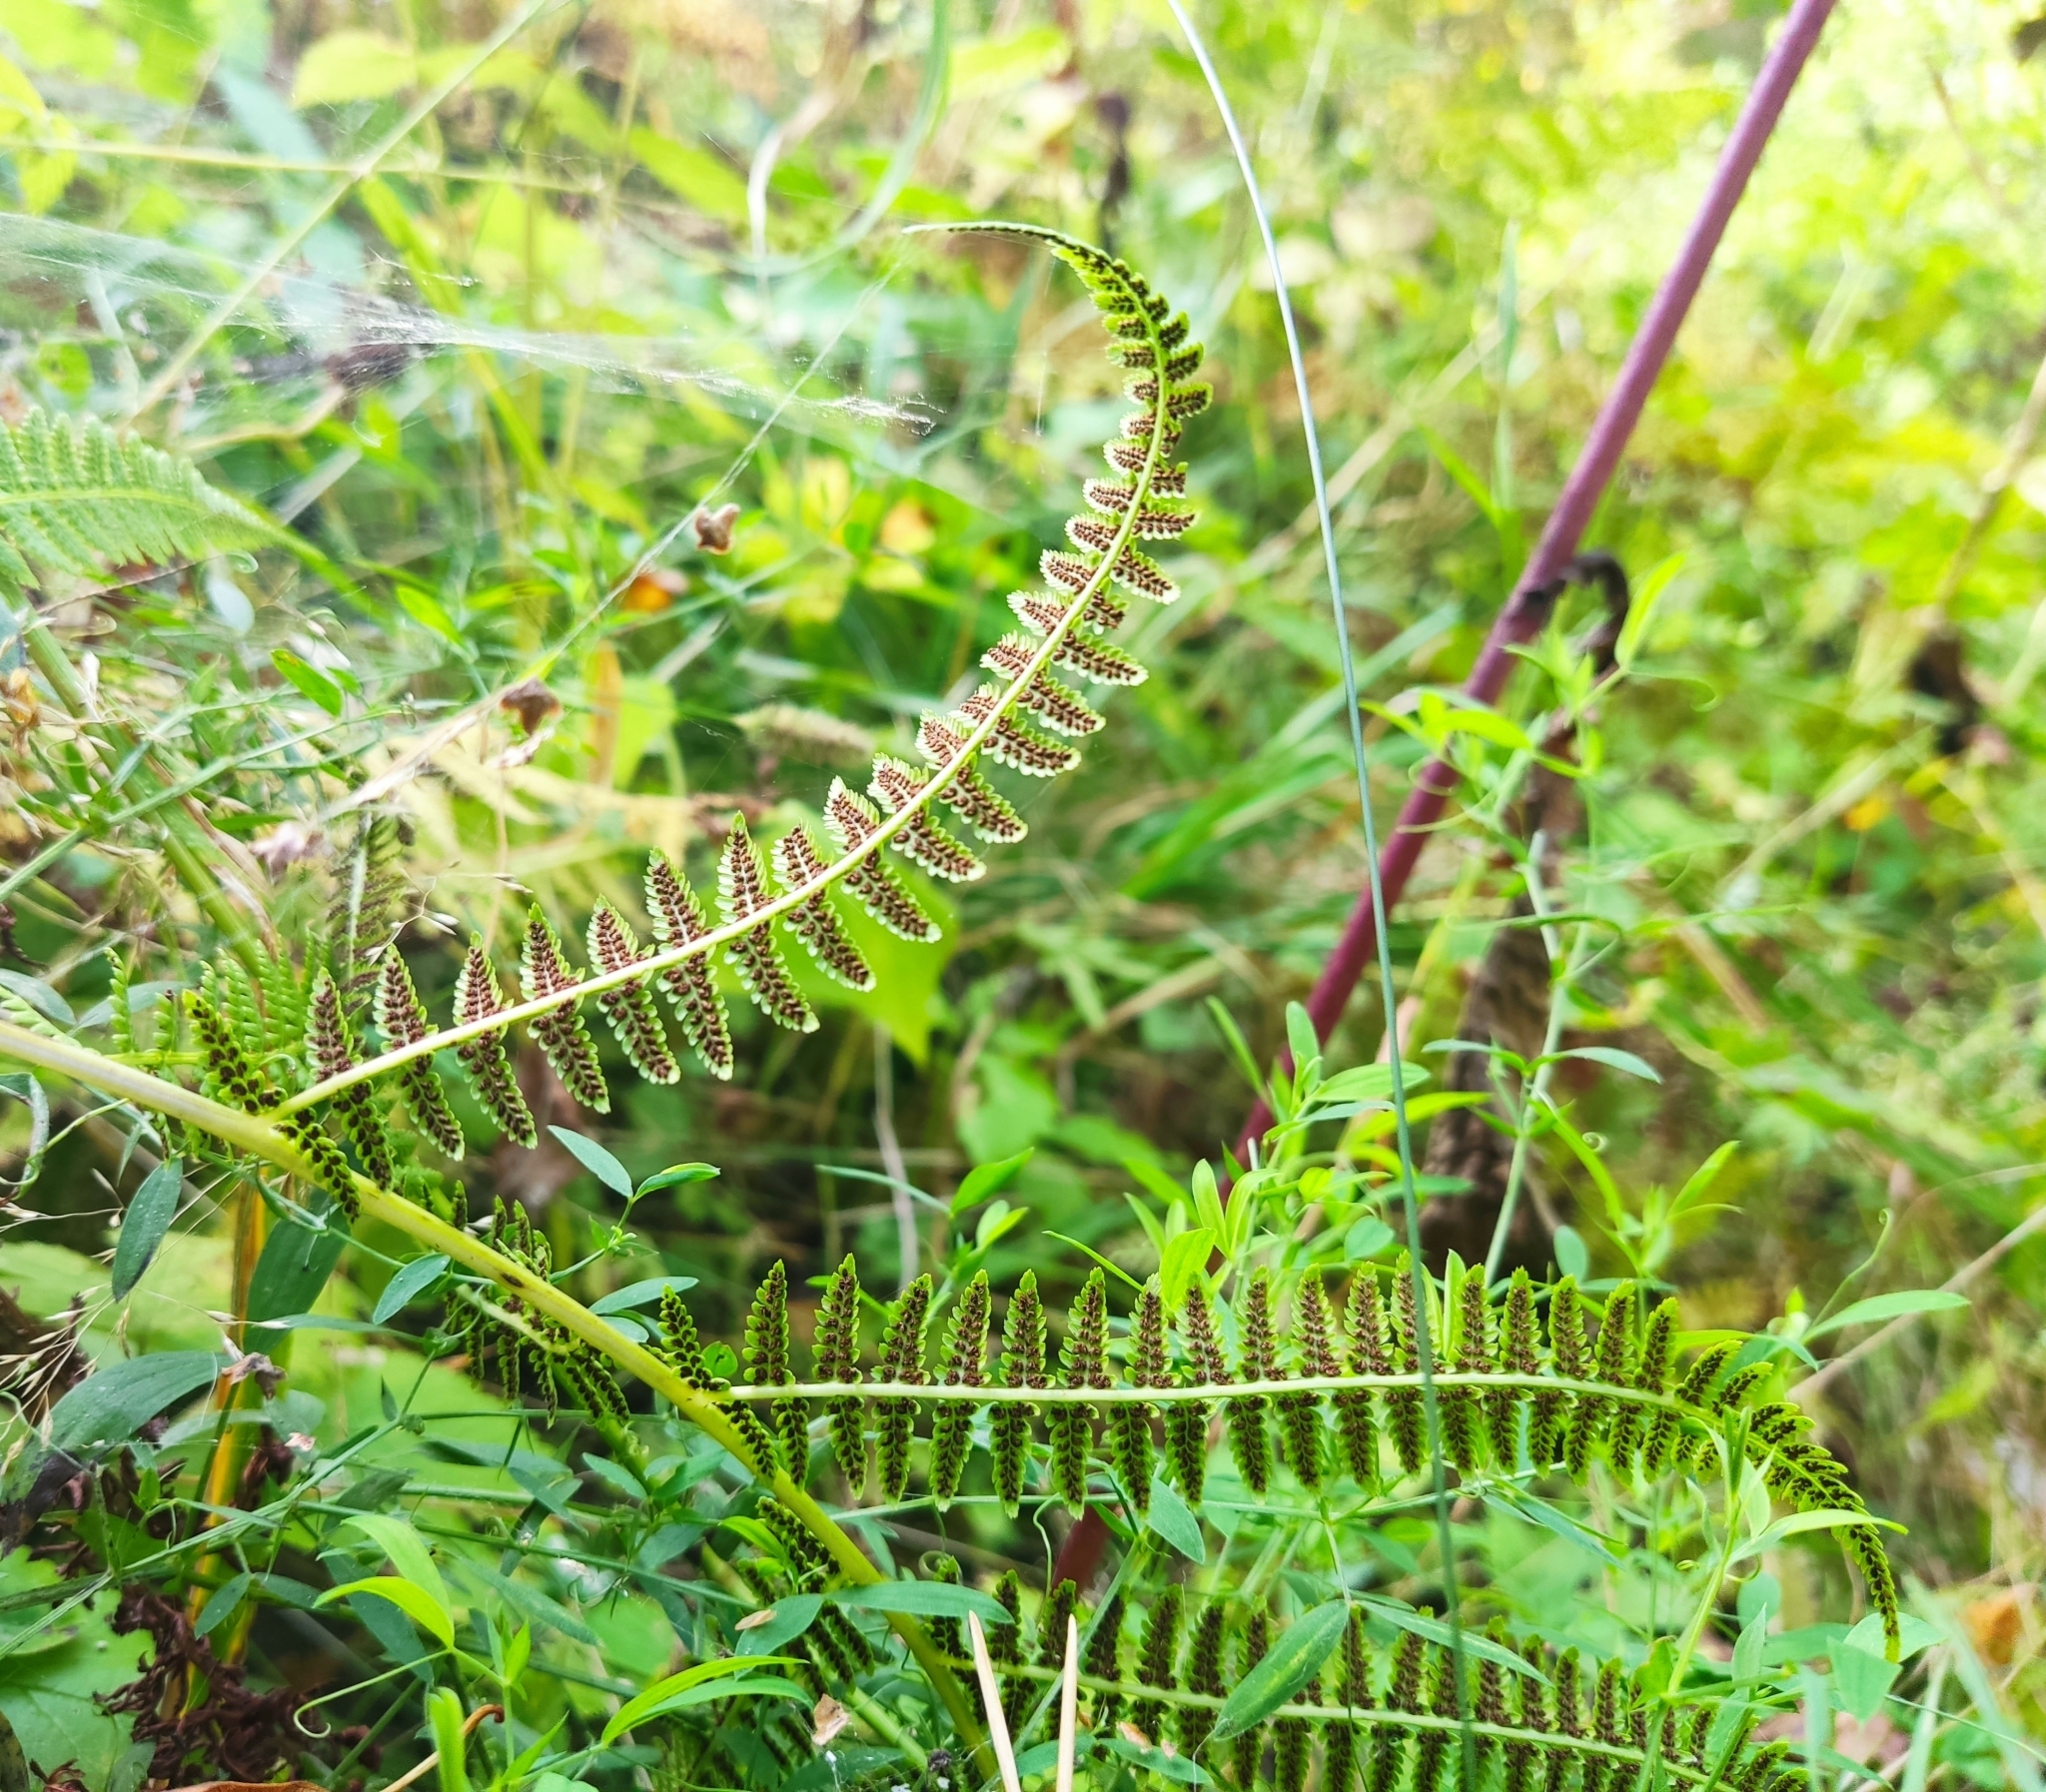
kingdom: Plantae
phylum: Tracheophyta
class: Polypodiopsida
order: Polypodiales
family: Athyriaceae
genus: Athyrium
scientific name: Athyrium filix-femina
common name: Lady fern
